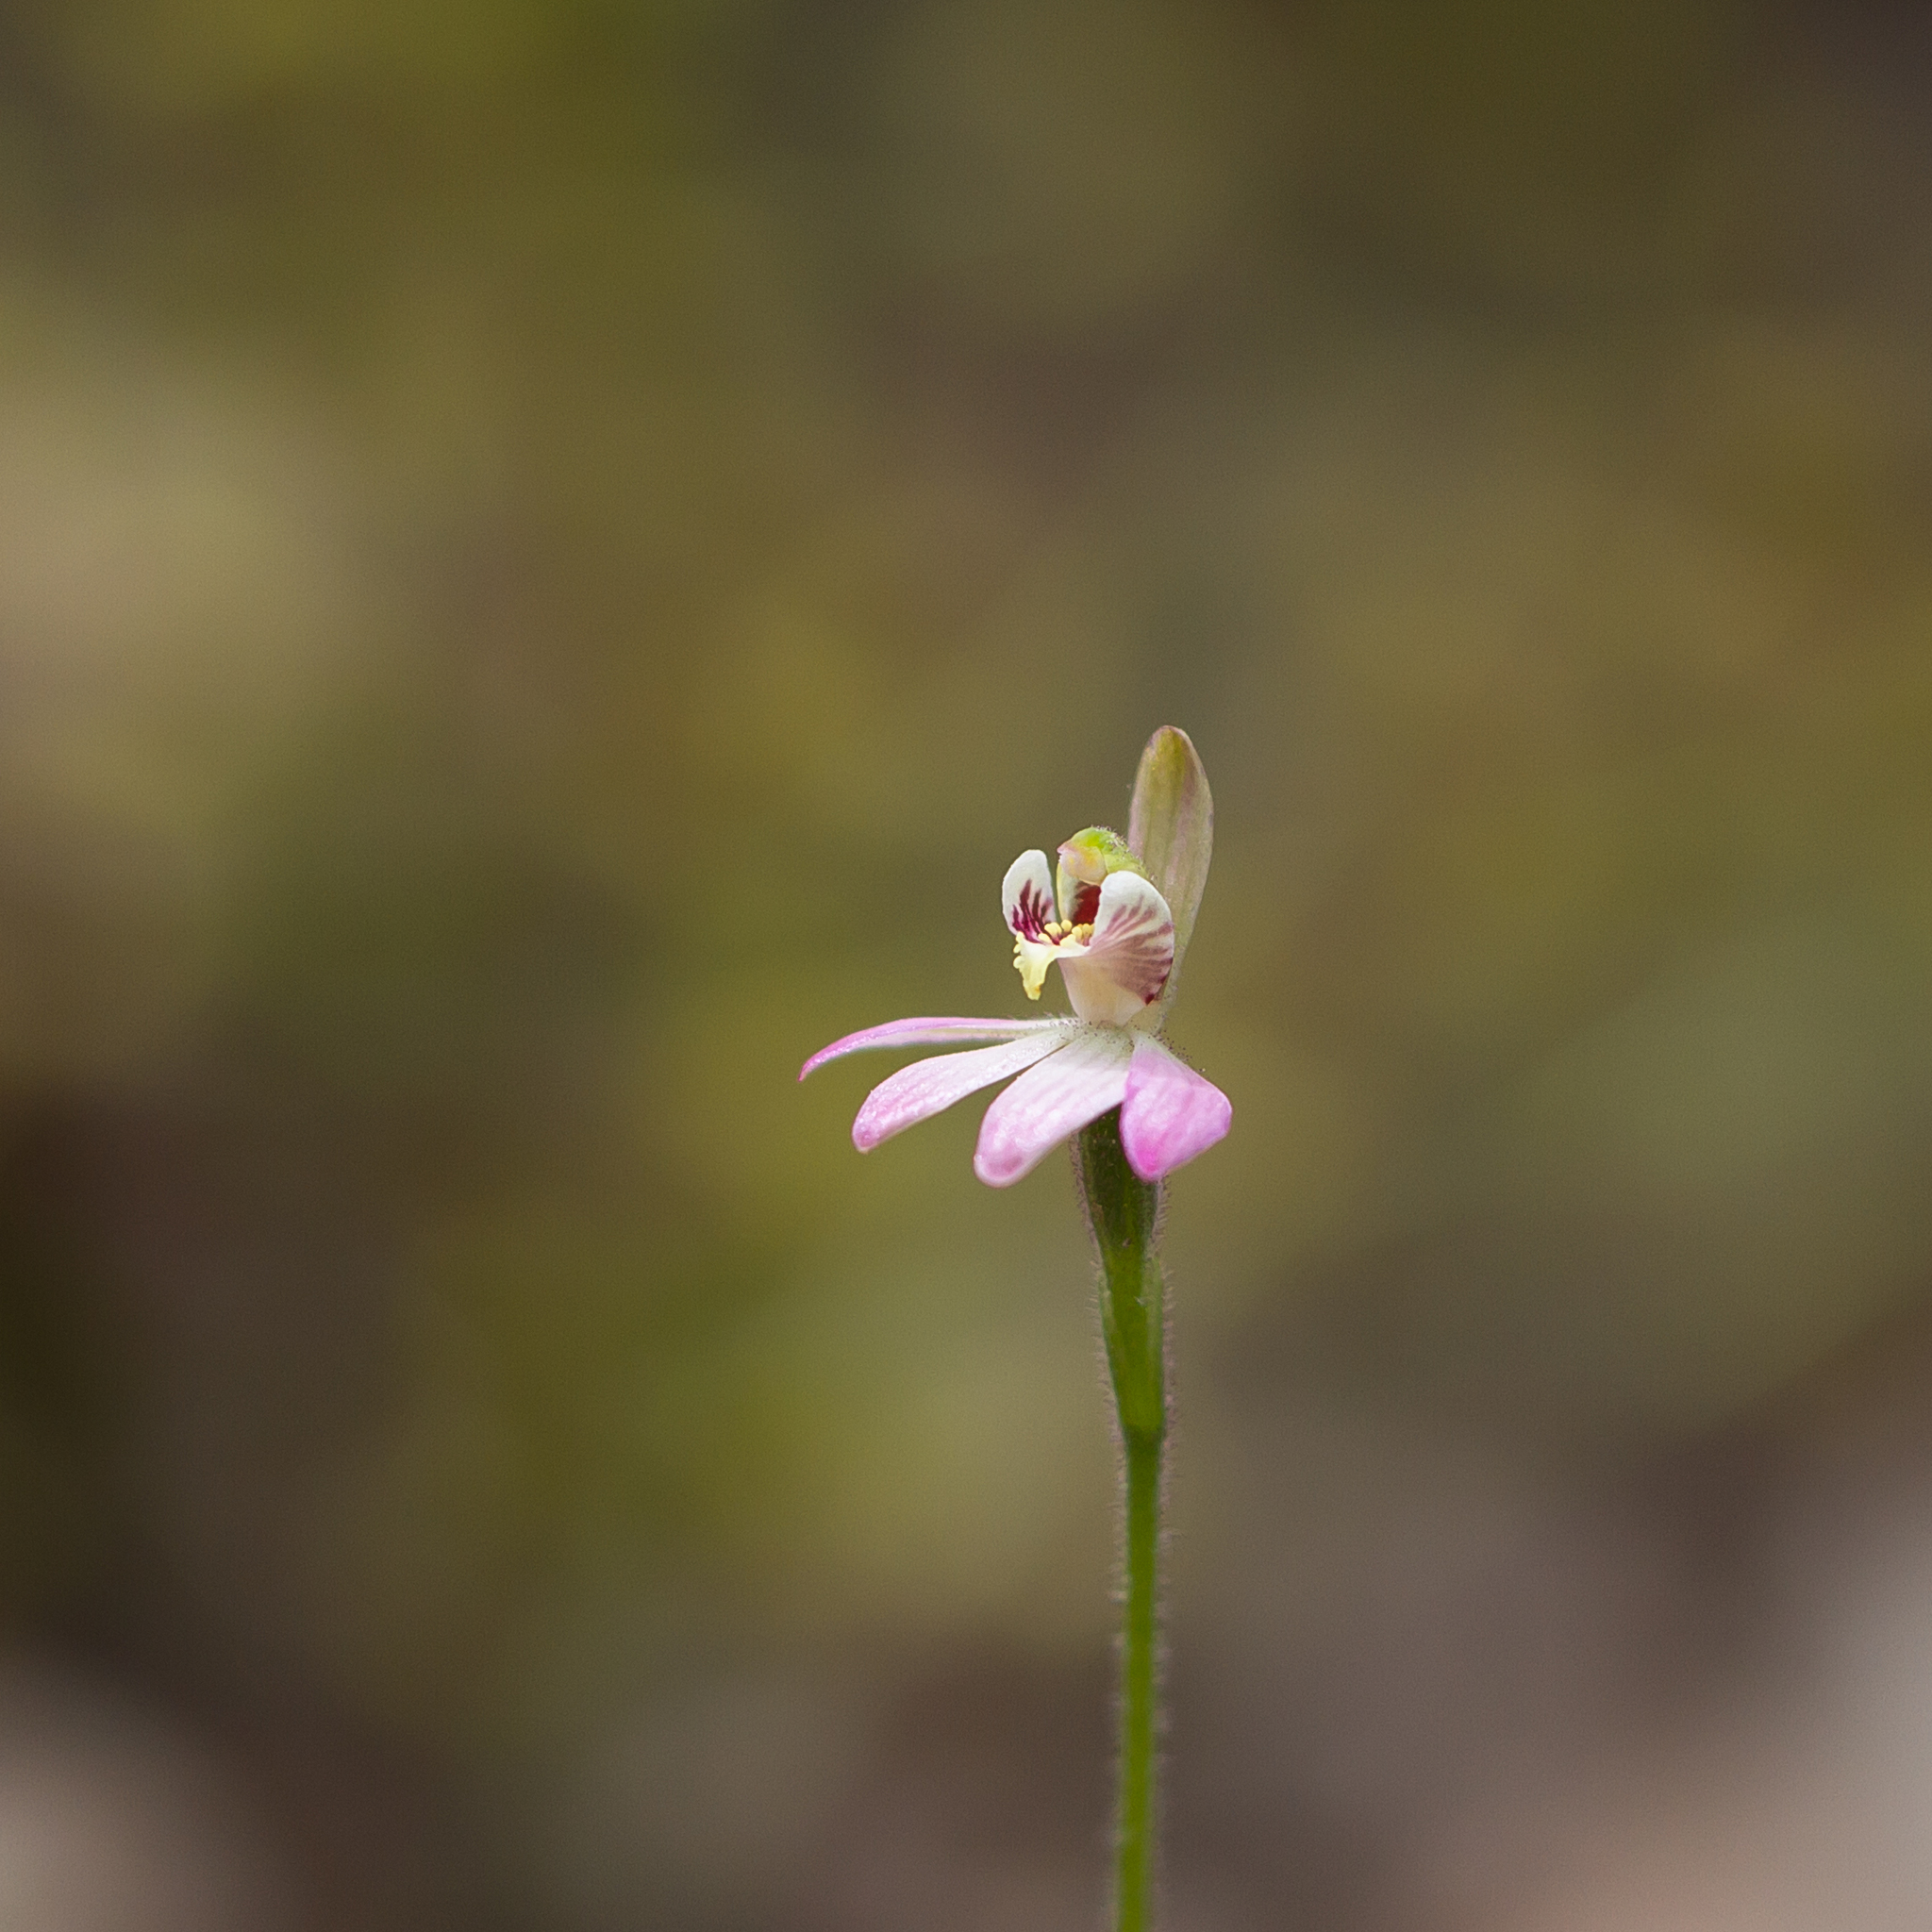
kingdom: Plantae
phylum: Tracheophyta
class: Liliopsida
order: Asparagales
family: Orchidaceae
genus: Caladenia
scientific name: Caladenia pusilla
